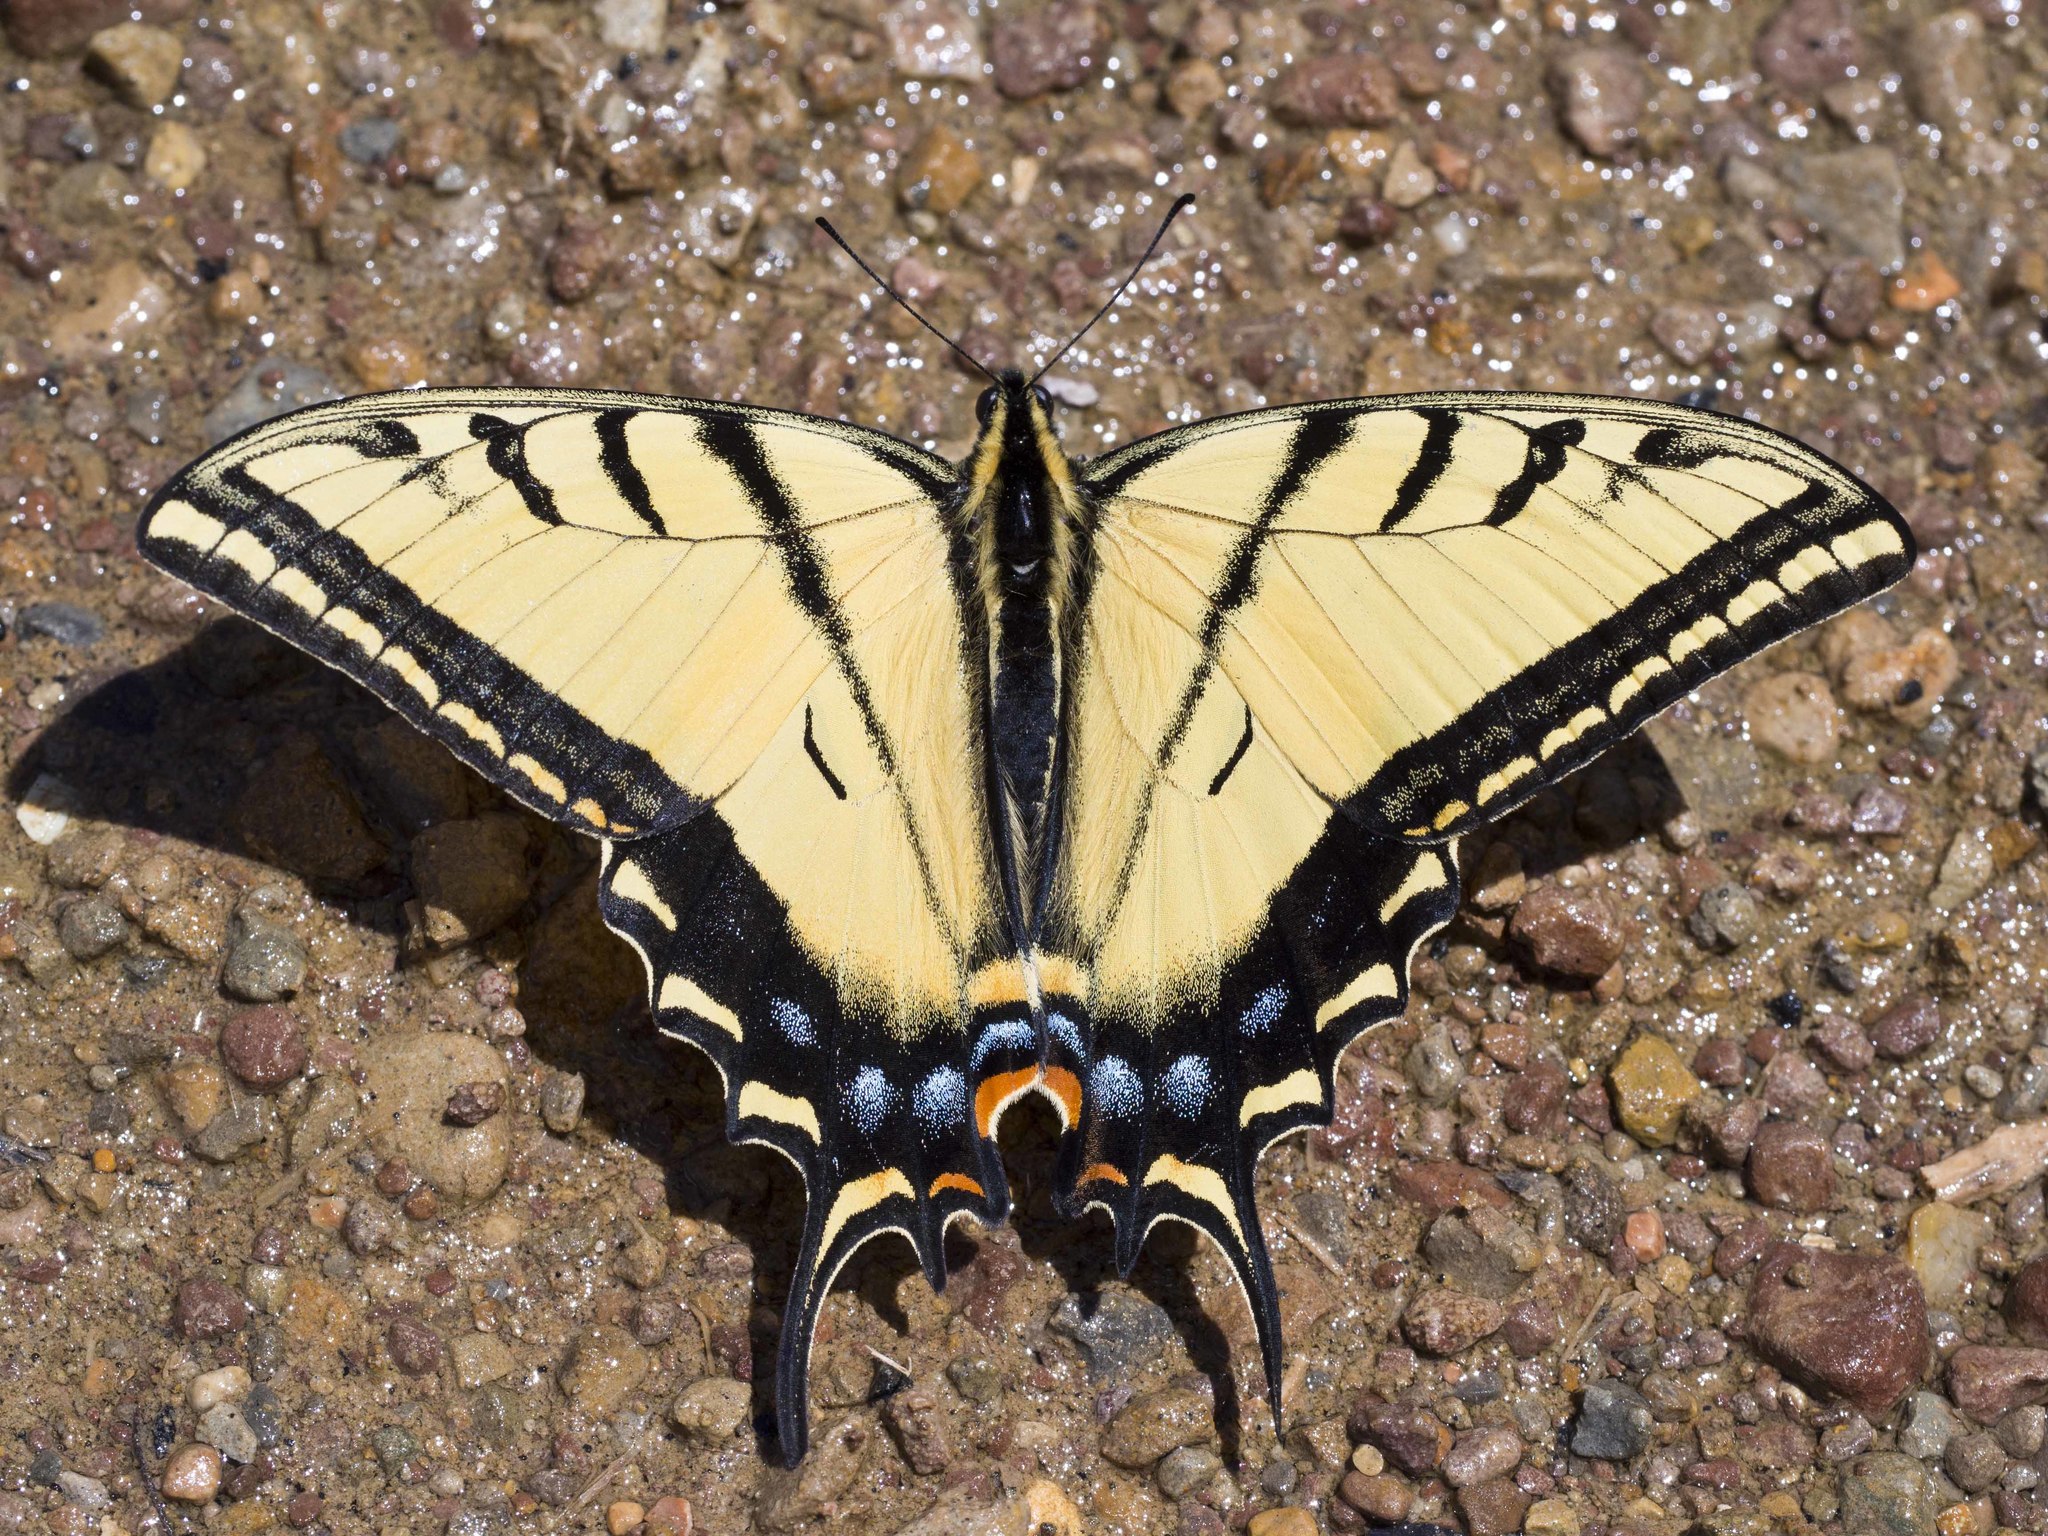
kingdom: Animalia
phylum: Arthropoda
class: Insecta
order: Lepidoptera
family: Papilionidae
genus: Papilio
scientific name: Papilio multicaudata
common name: Two-tailed tiger swallowtail
